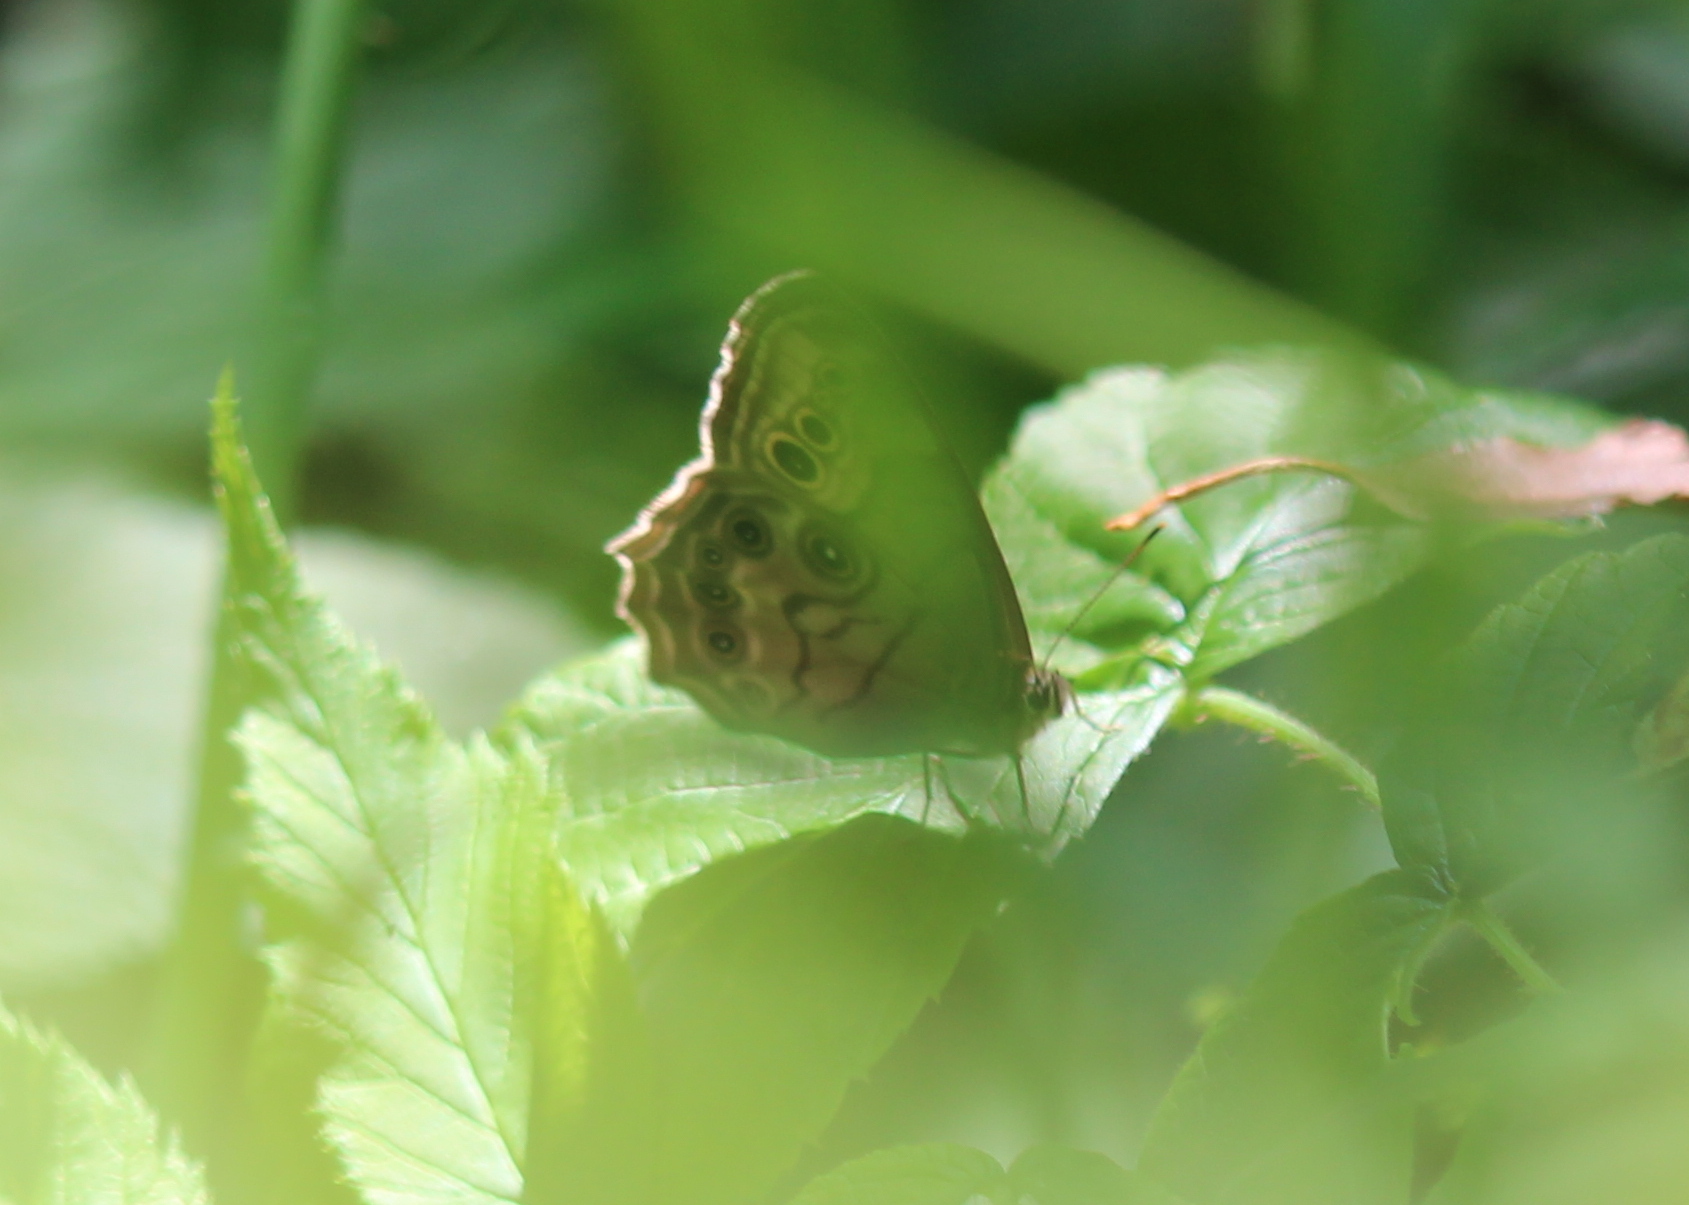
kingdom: Animalia
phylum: Arthropoda
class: Insecta
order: Lepidoptera
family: Nymphalidae
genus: Lethe
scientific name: Lethe anthedon
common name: Northern pearly-eye
